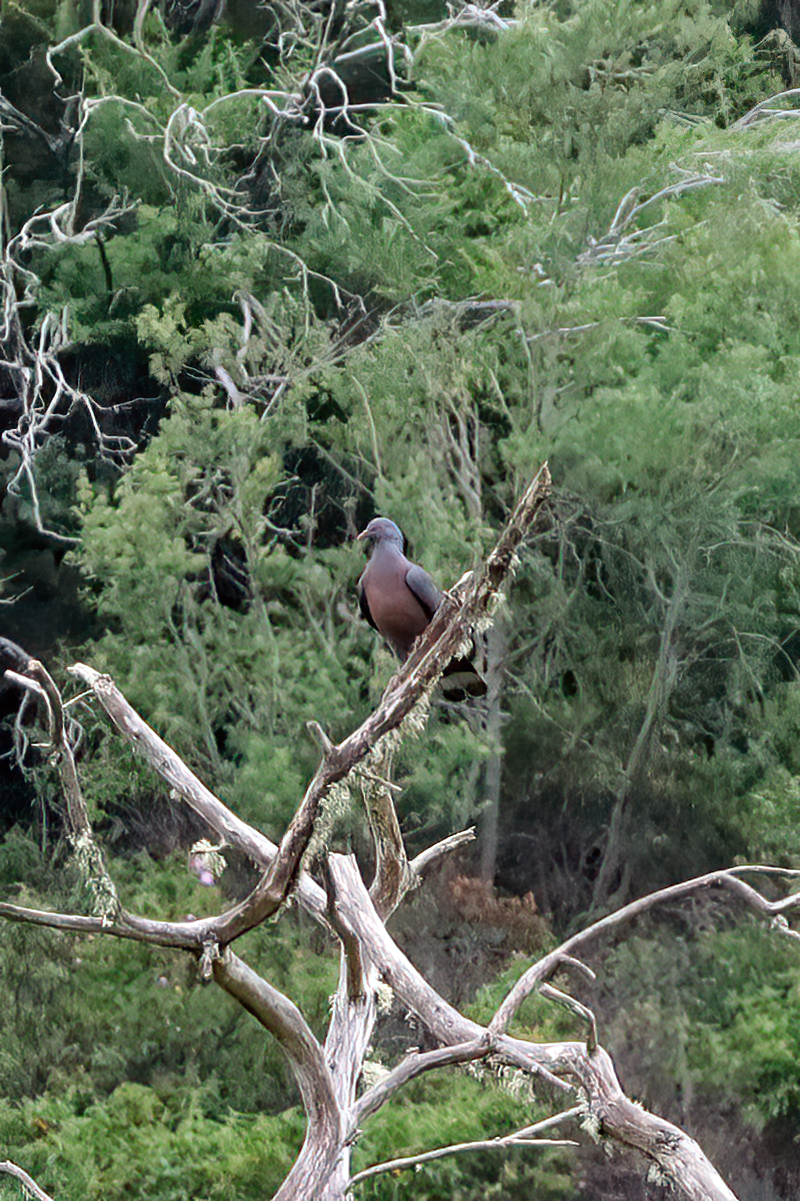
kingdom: Animalia
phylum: Chordata
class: Aves
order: Columbiformes
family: Columbidae
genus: Columba
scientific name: Columba bollii
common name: Bolle's pigeon
